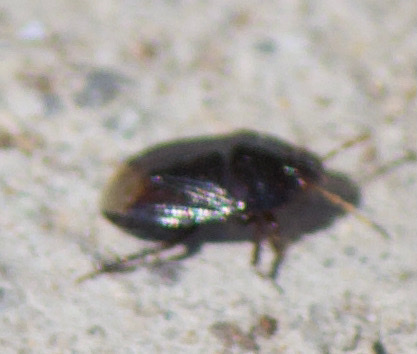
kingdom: Animalia
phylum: Arthropoda
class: Insecta
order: Hemiptera
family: Cydnidae
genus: Tominotus
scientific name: Tominotus
